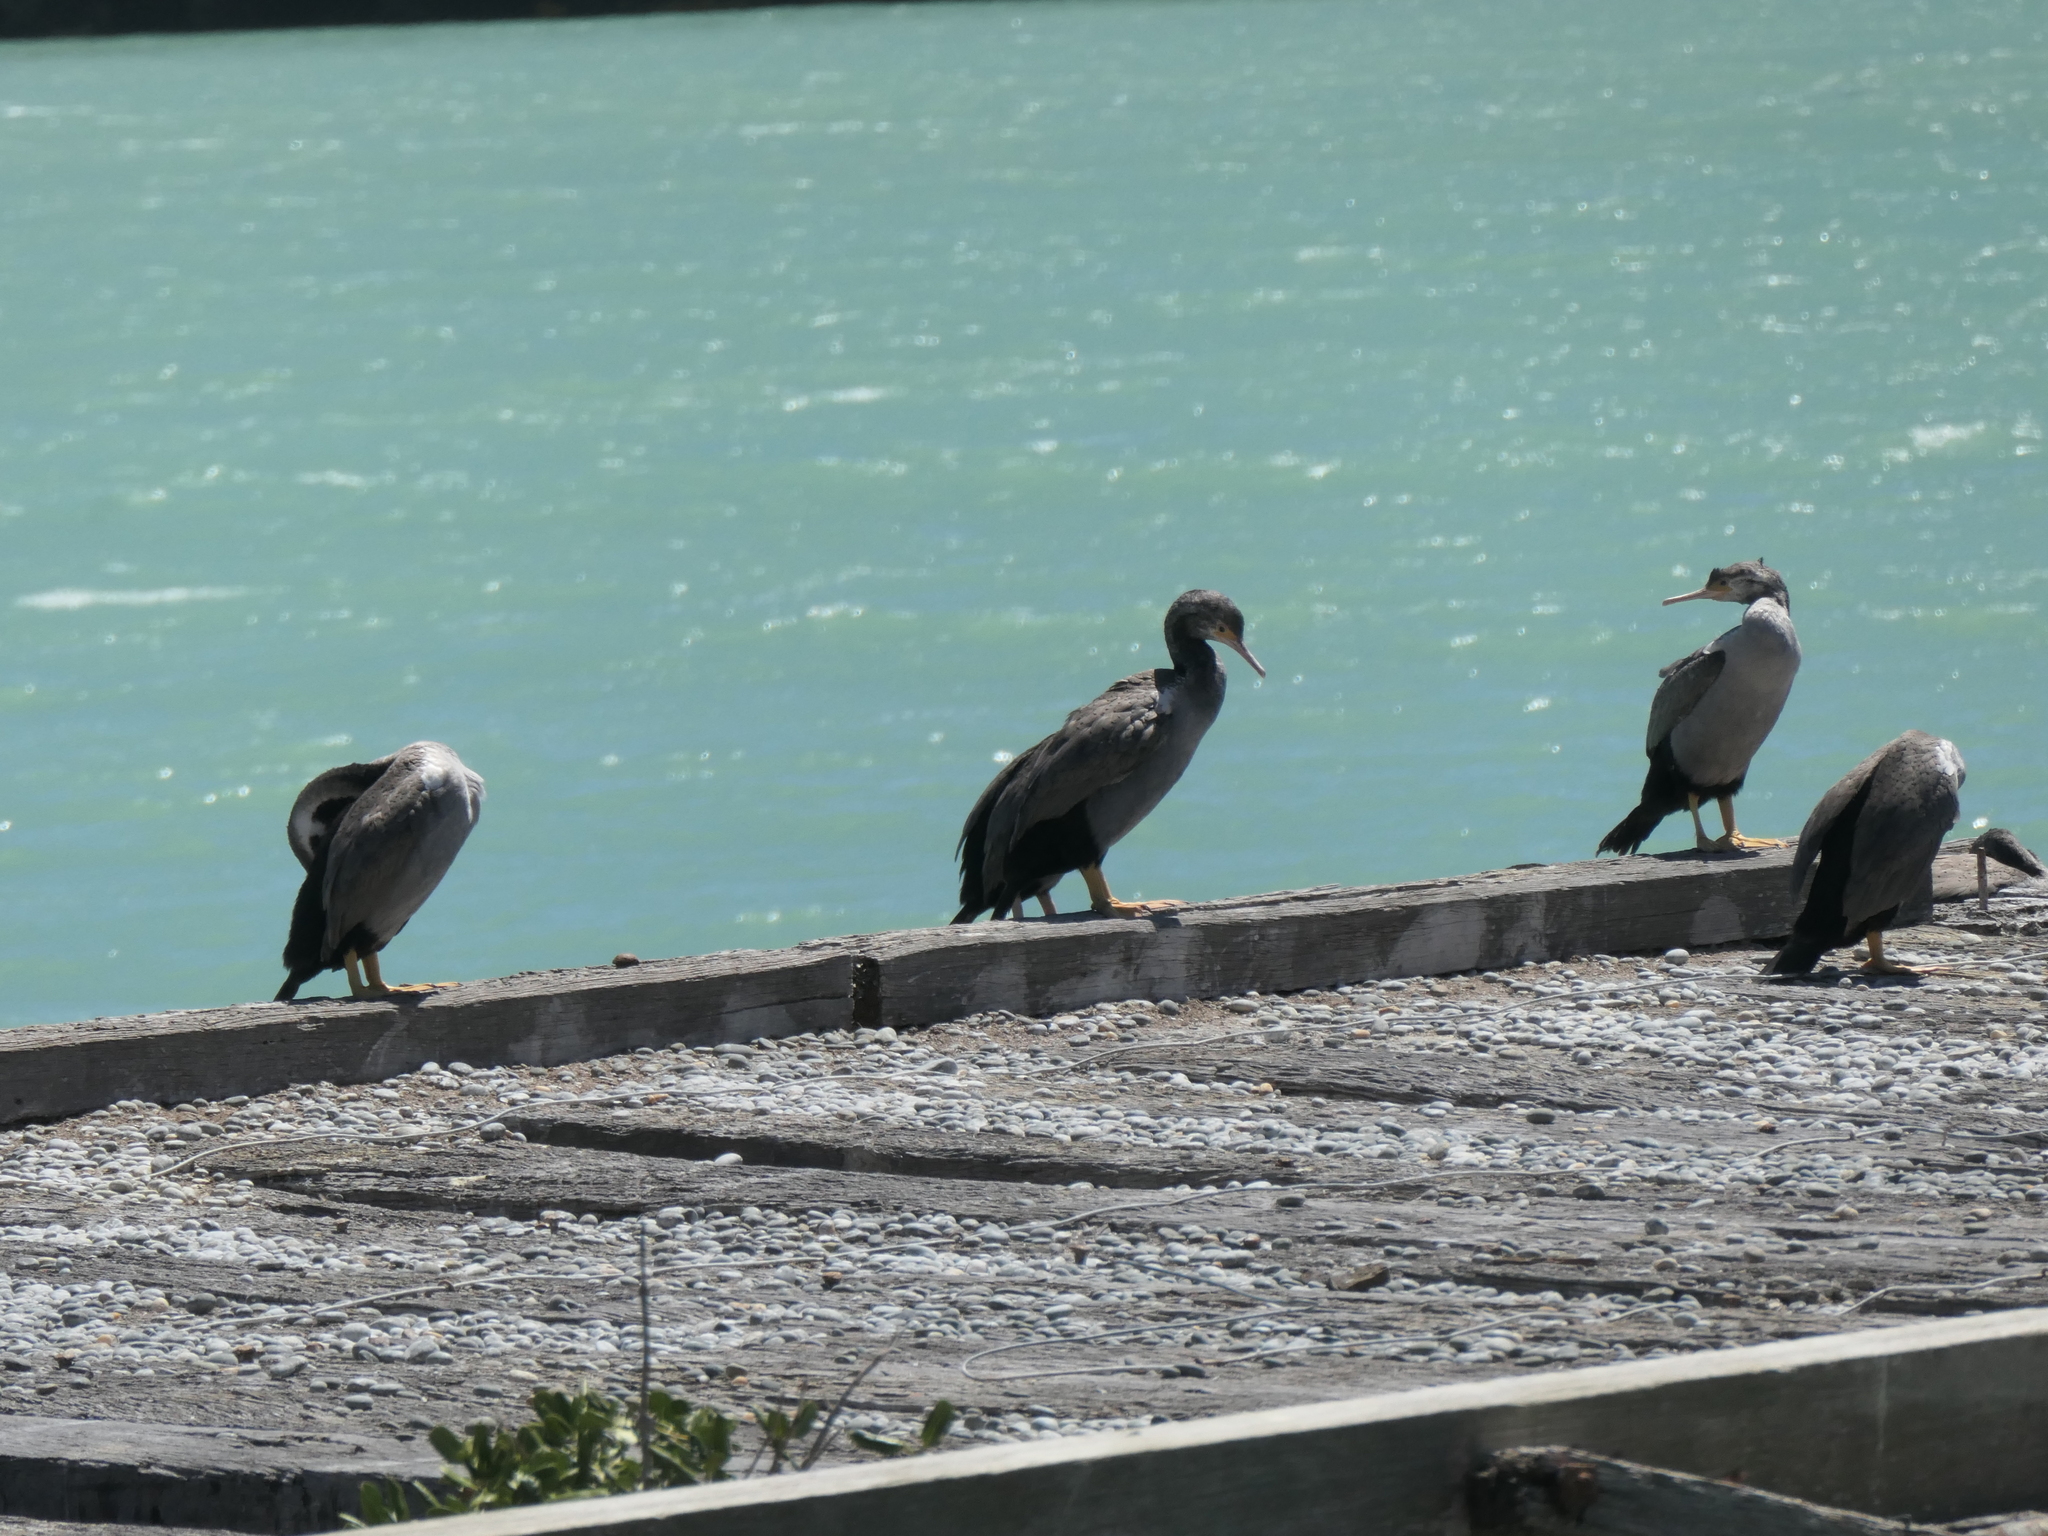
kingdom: Animalia
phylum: Chordata
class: Aves
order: Suliformes
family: Phalacrocoracidae
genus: Phalacrocorax
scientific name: Phalacrocorax punctatus
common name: Spotted shag
